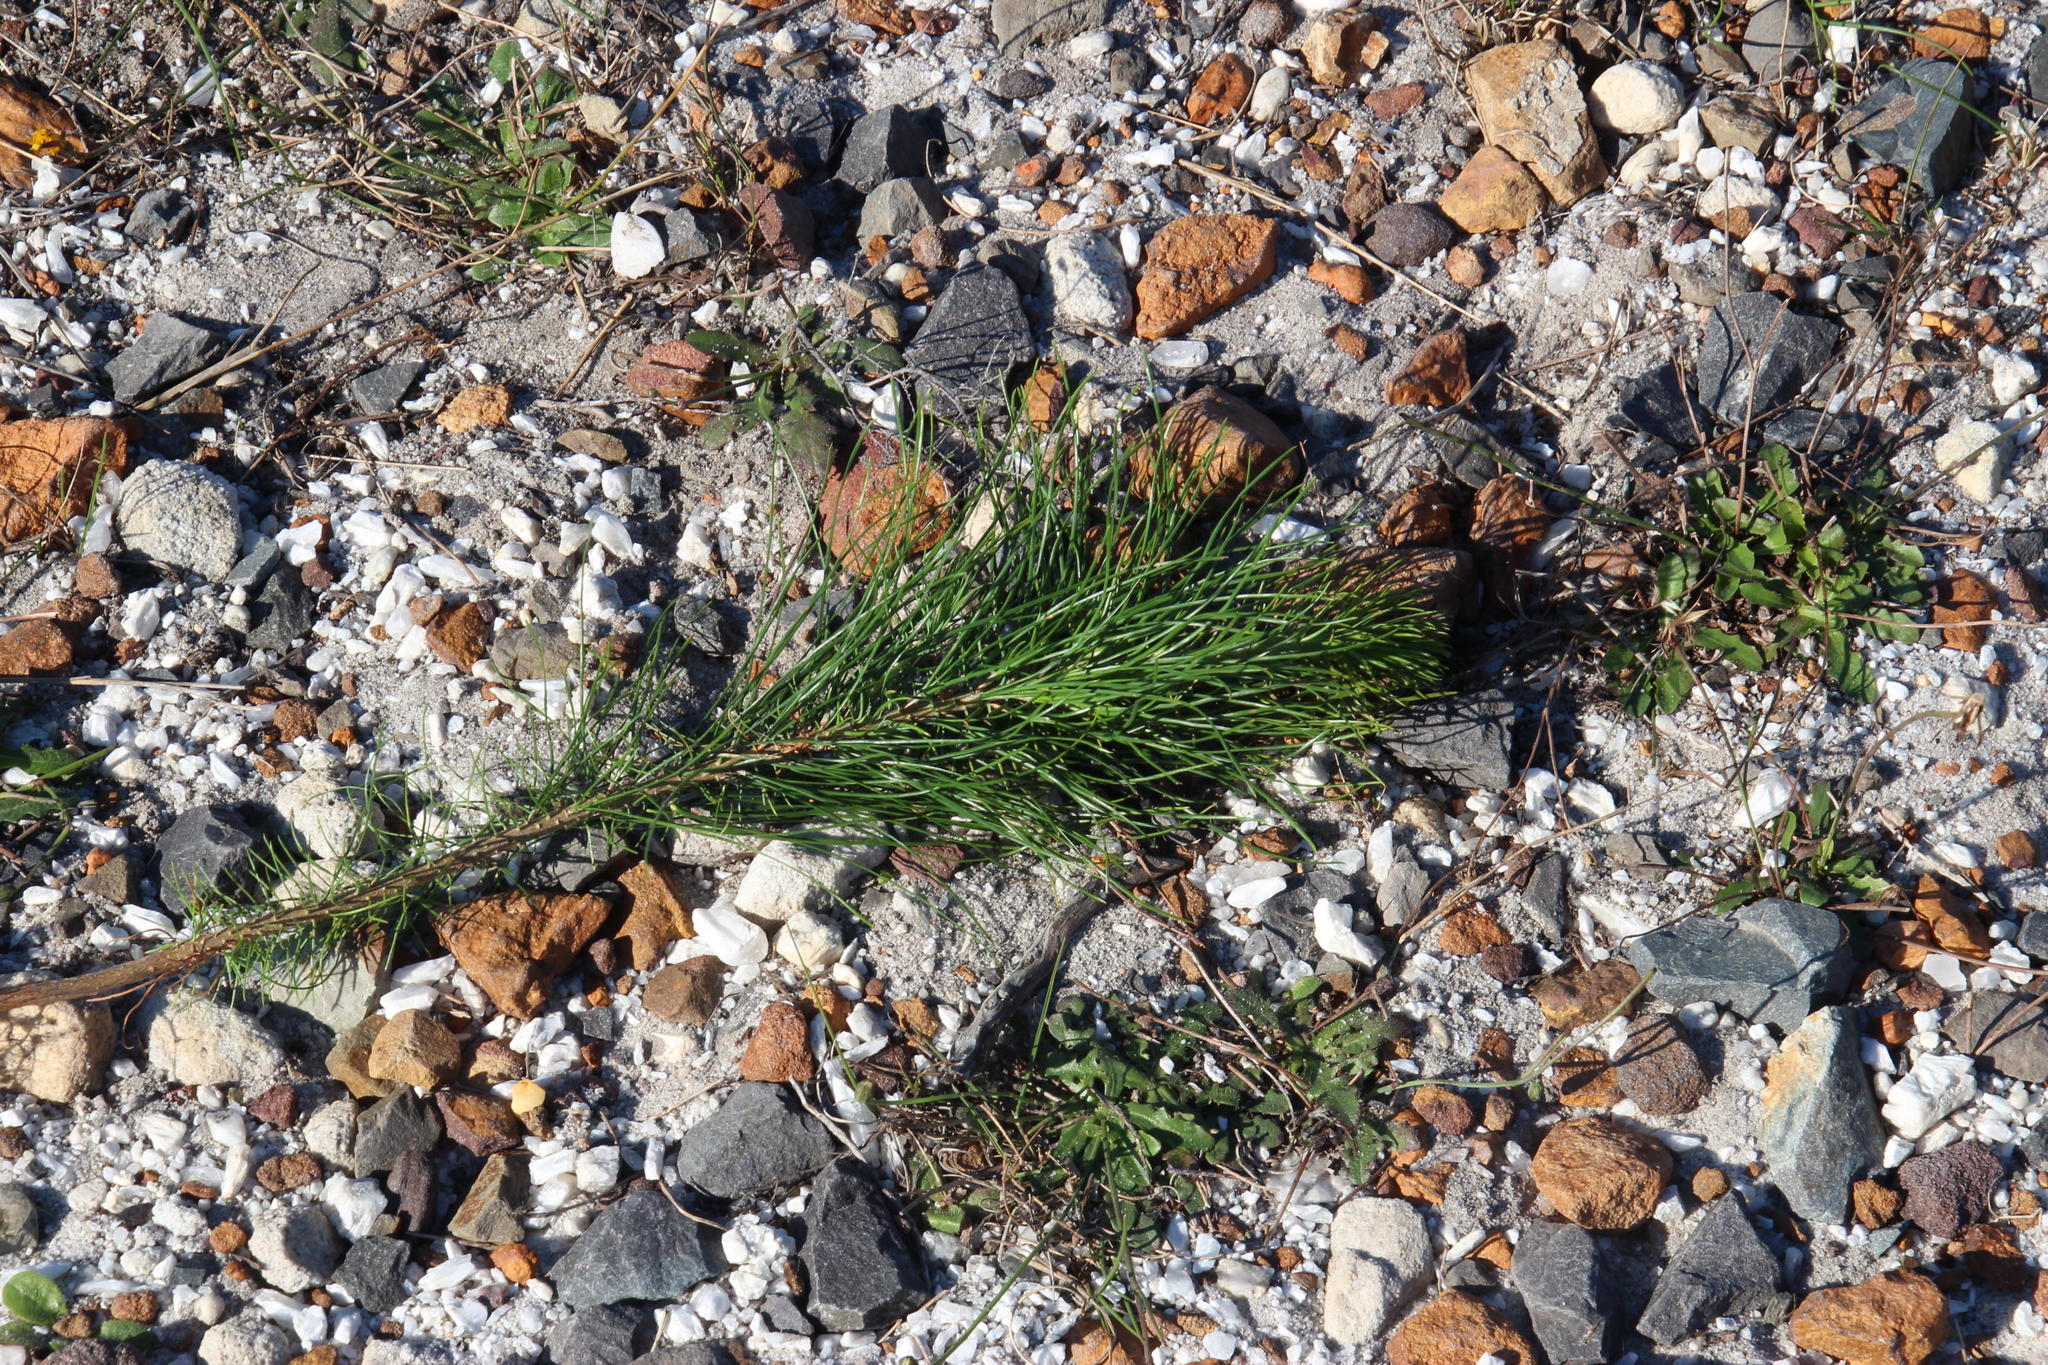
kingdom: Plantae
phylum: Tracheophyta
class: Pinopsida
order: Pinales
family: Pinaceae
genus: Pinus
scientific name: Pinus radiata
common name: Monterey pine
